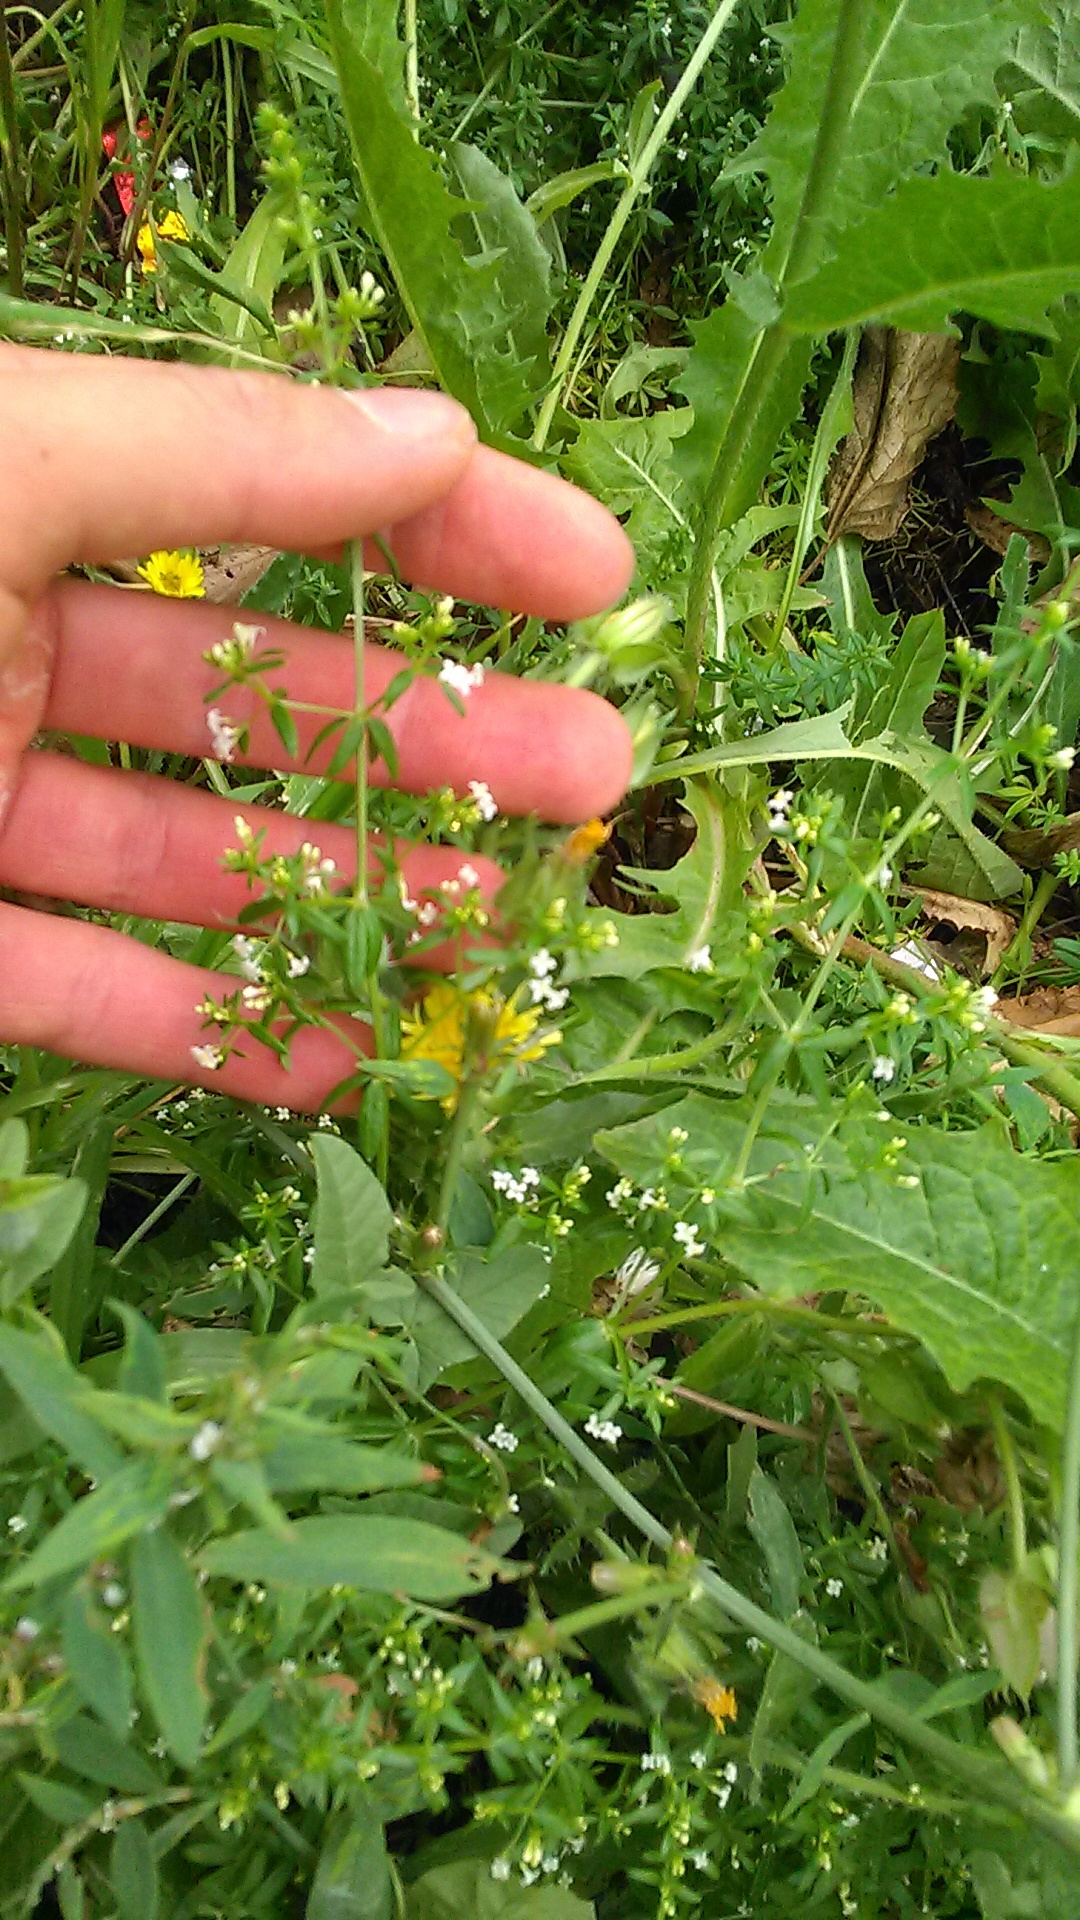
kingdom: Plantae
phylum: Tracheophyta
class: Magnoliopsida
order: Gentianales
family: Rubiaceae
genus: Galium
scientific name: Galium humifusum
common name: Spreading bedstraw
